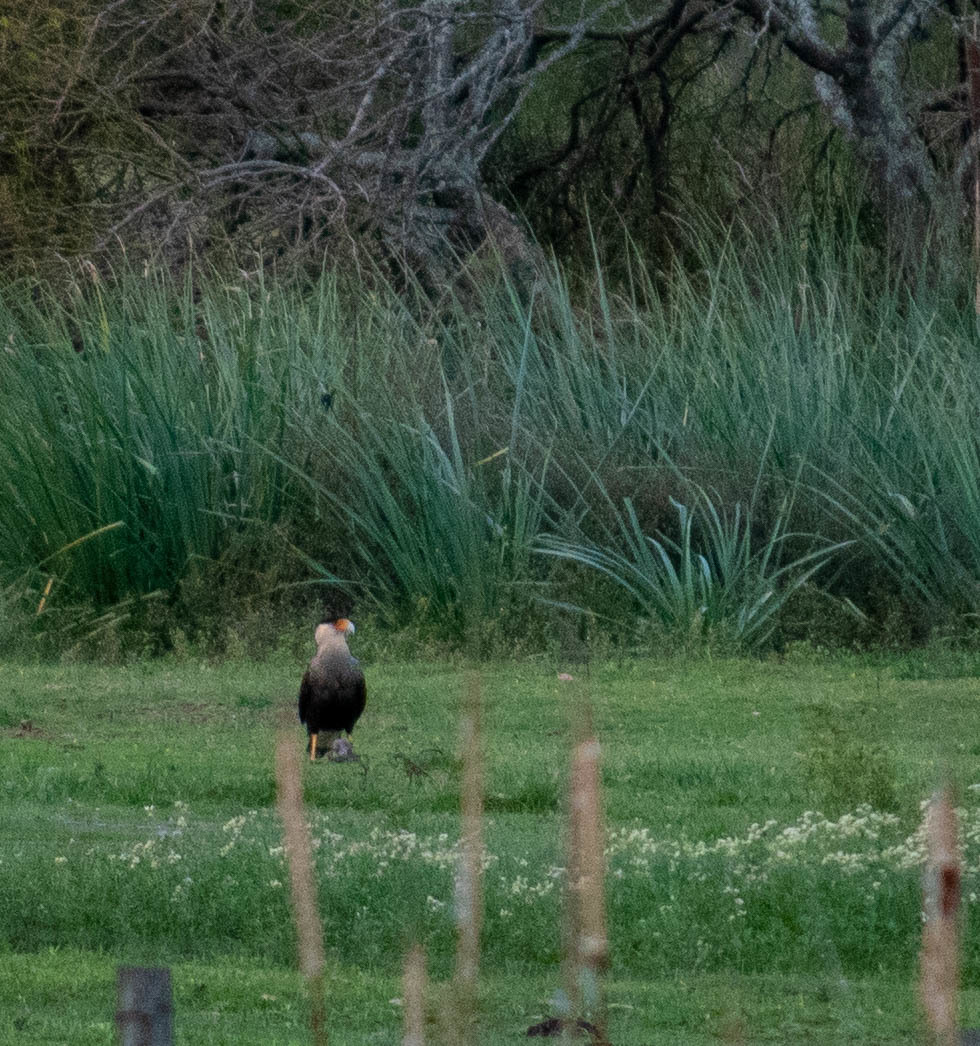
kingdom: Animalia
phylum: Chordata
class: Aves
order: Falconiformes
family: Falconidae
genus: Caracara
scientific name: Caracara plancus
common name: Southern caracara
